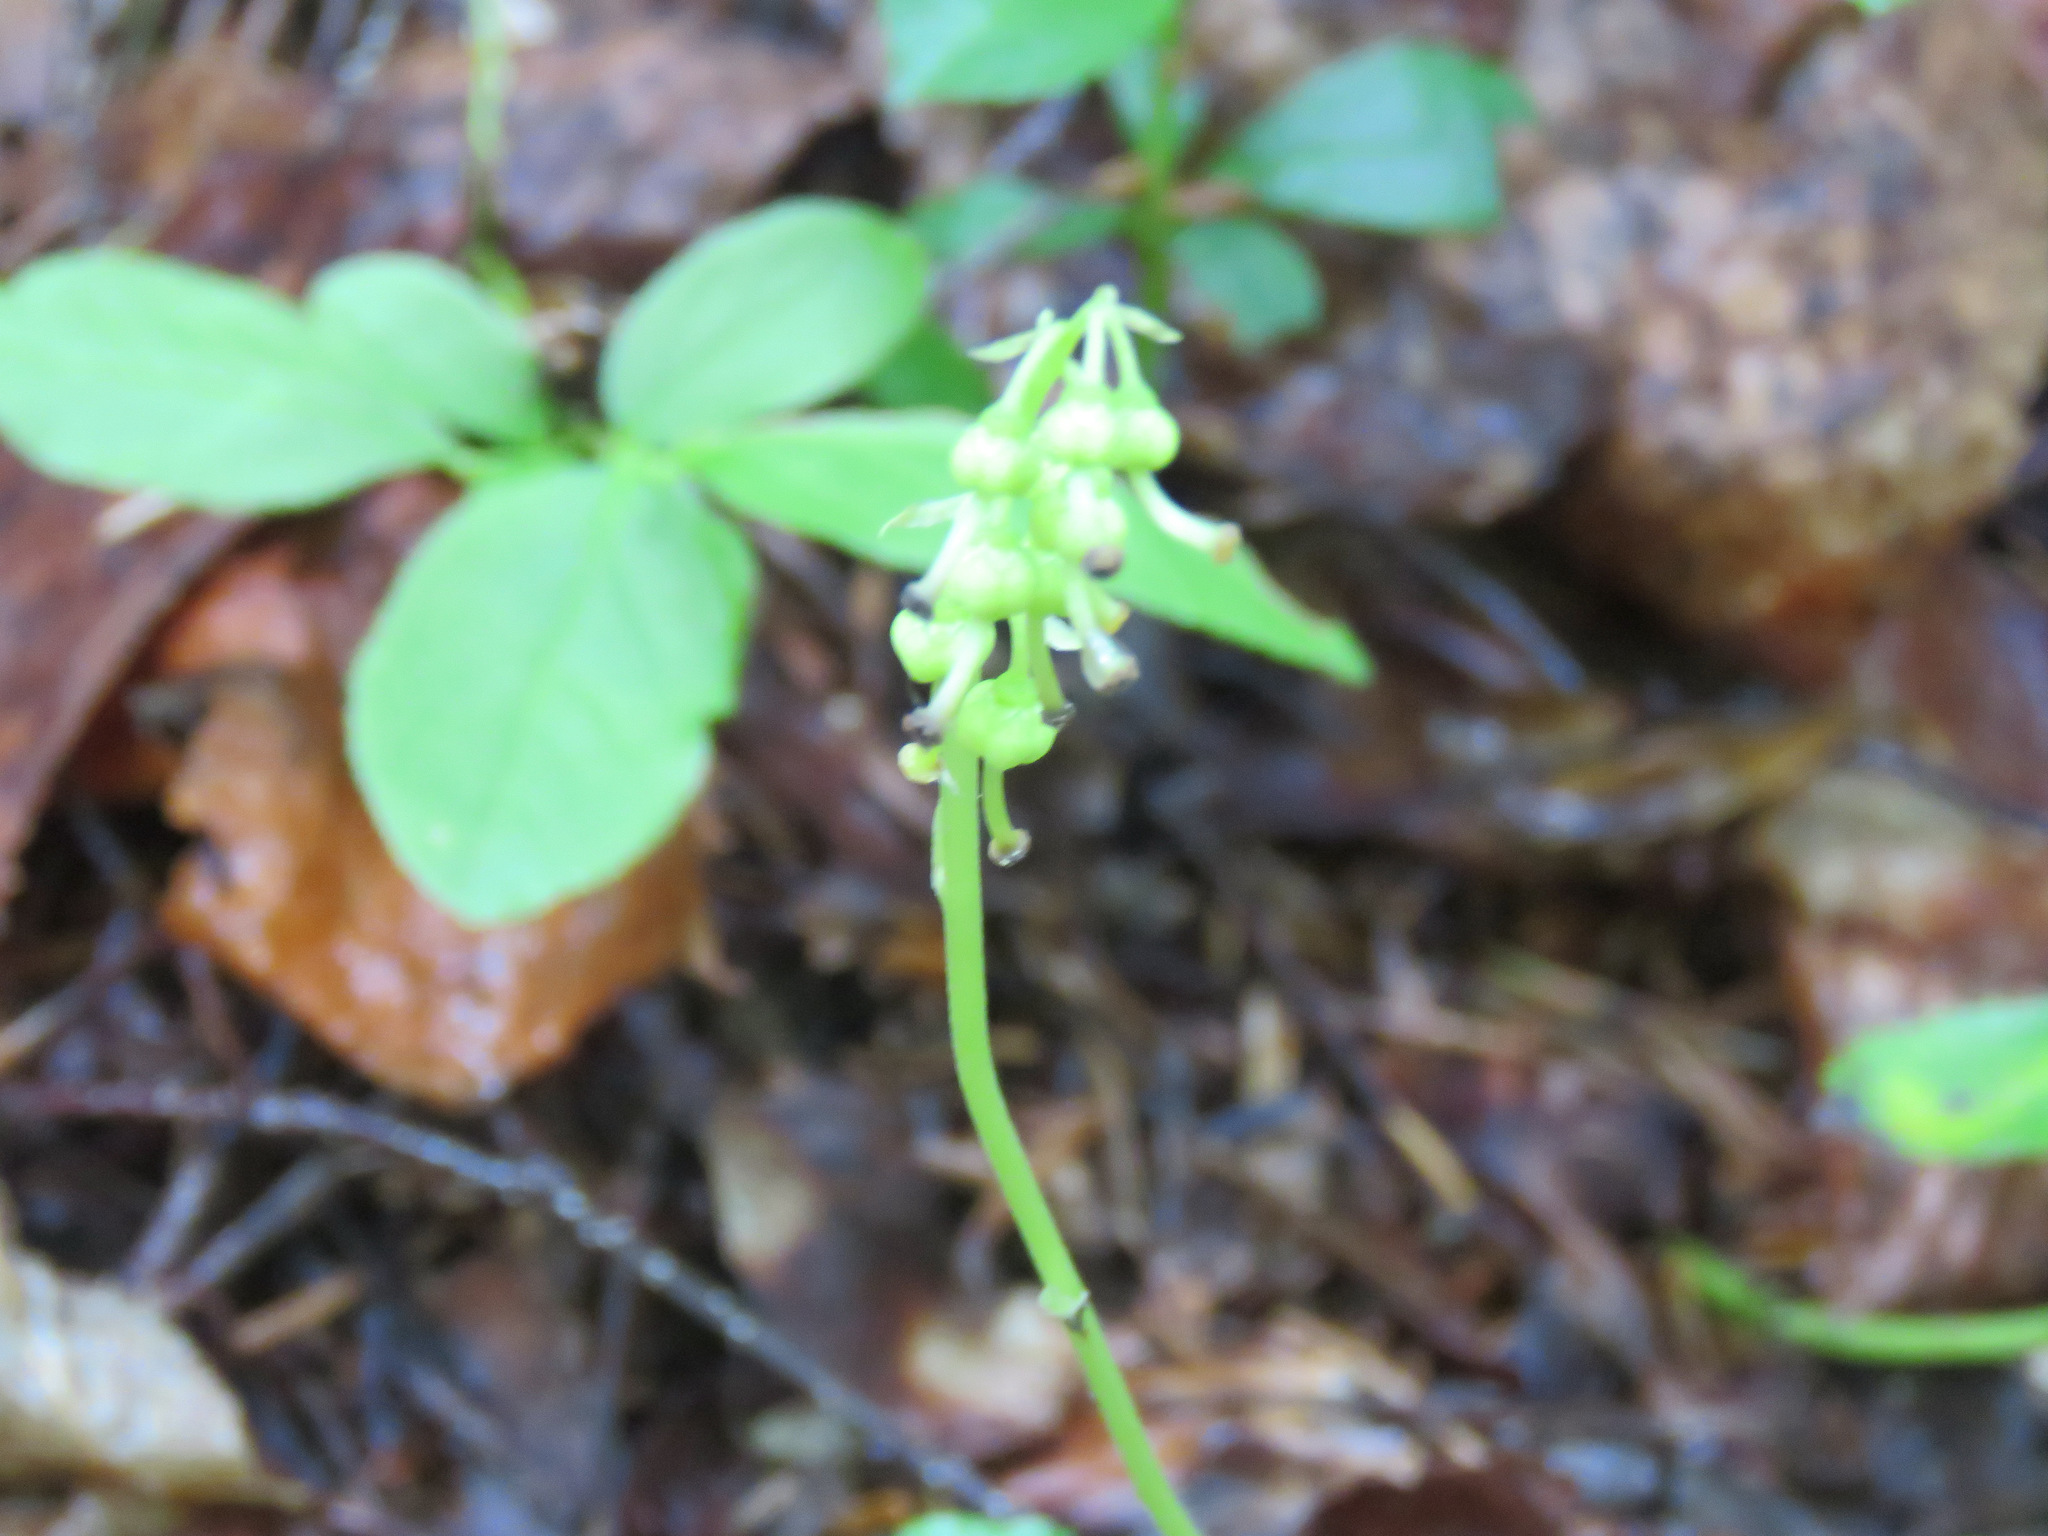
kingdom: Plantae
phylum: Tracheophyta
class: Magnoliopsida
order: Ericales
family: Ericaceae
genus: Orthilia
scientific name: Orthilia secunda
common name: One-sided orthilia
